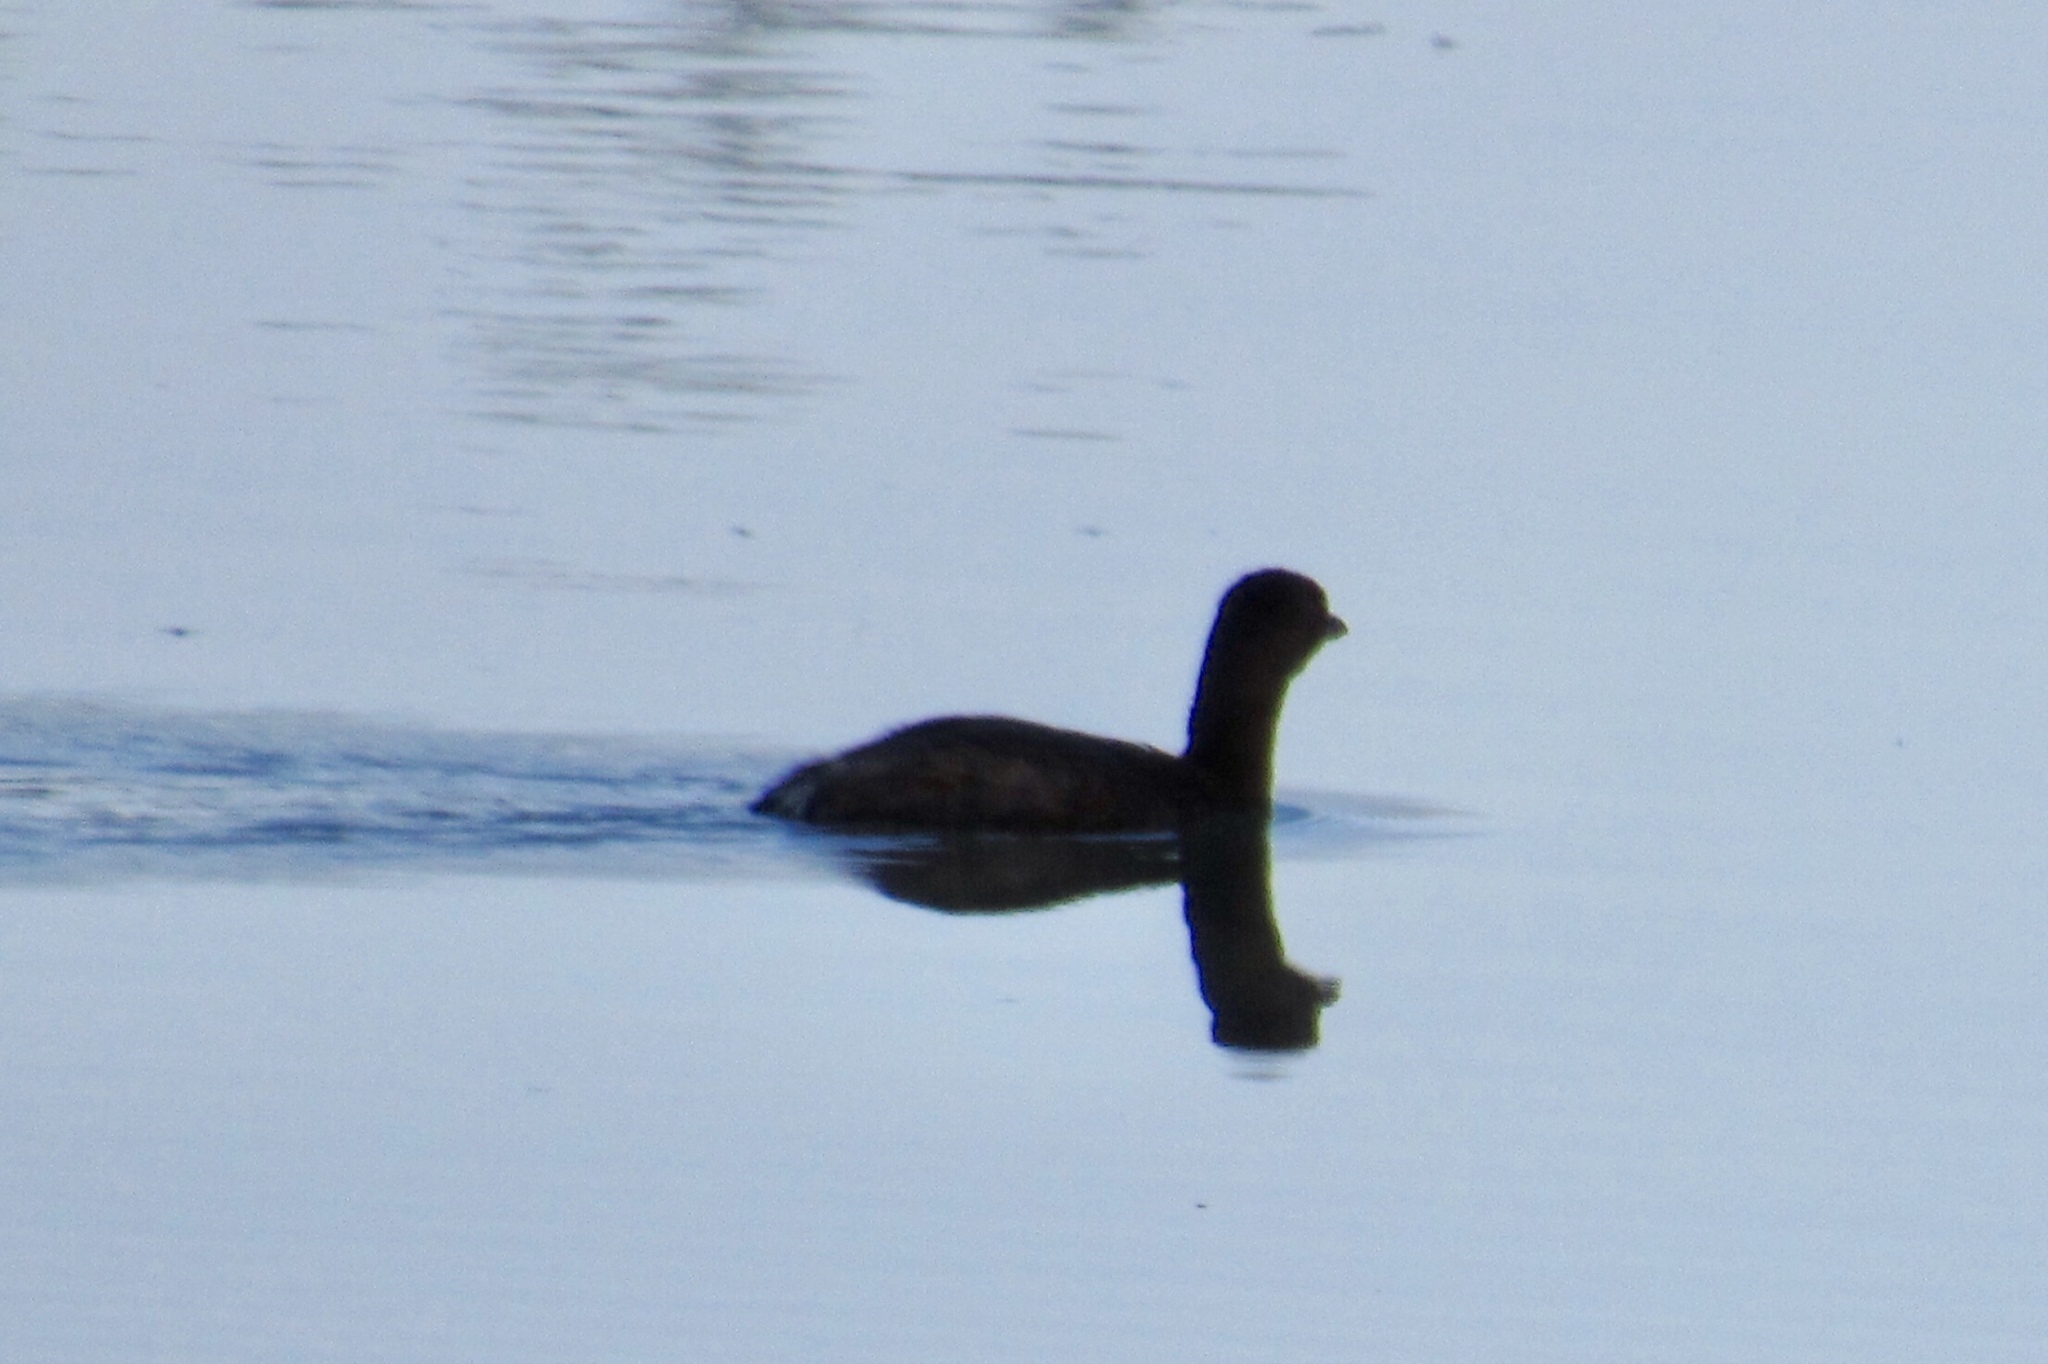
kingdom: Animalia
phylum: Chordata
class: Aves
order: Podicipediformes
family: Podicipedidae
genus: Podilymbus
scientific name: Podilymbus podiceps
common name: Pied-billed grebe
